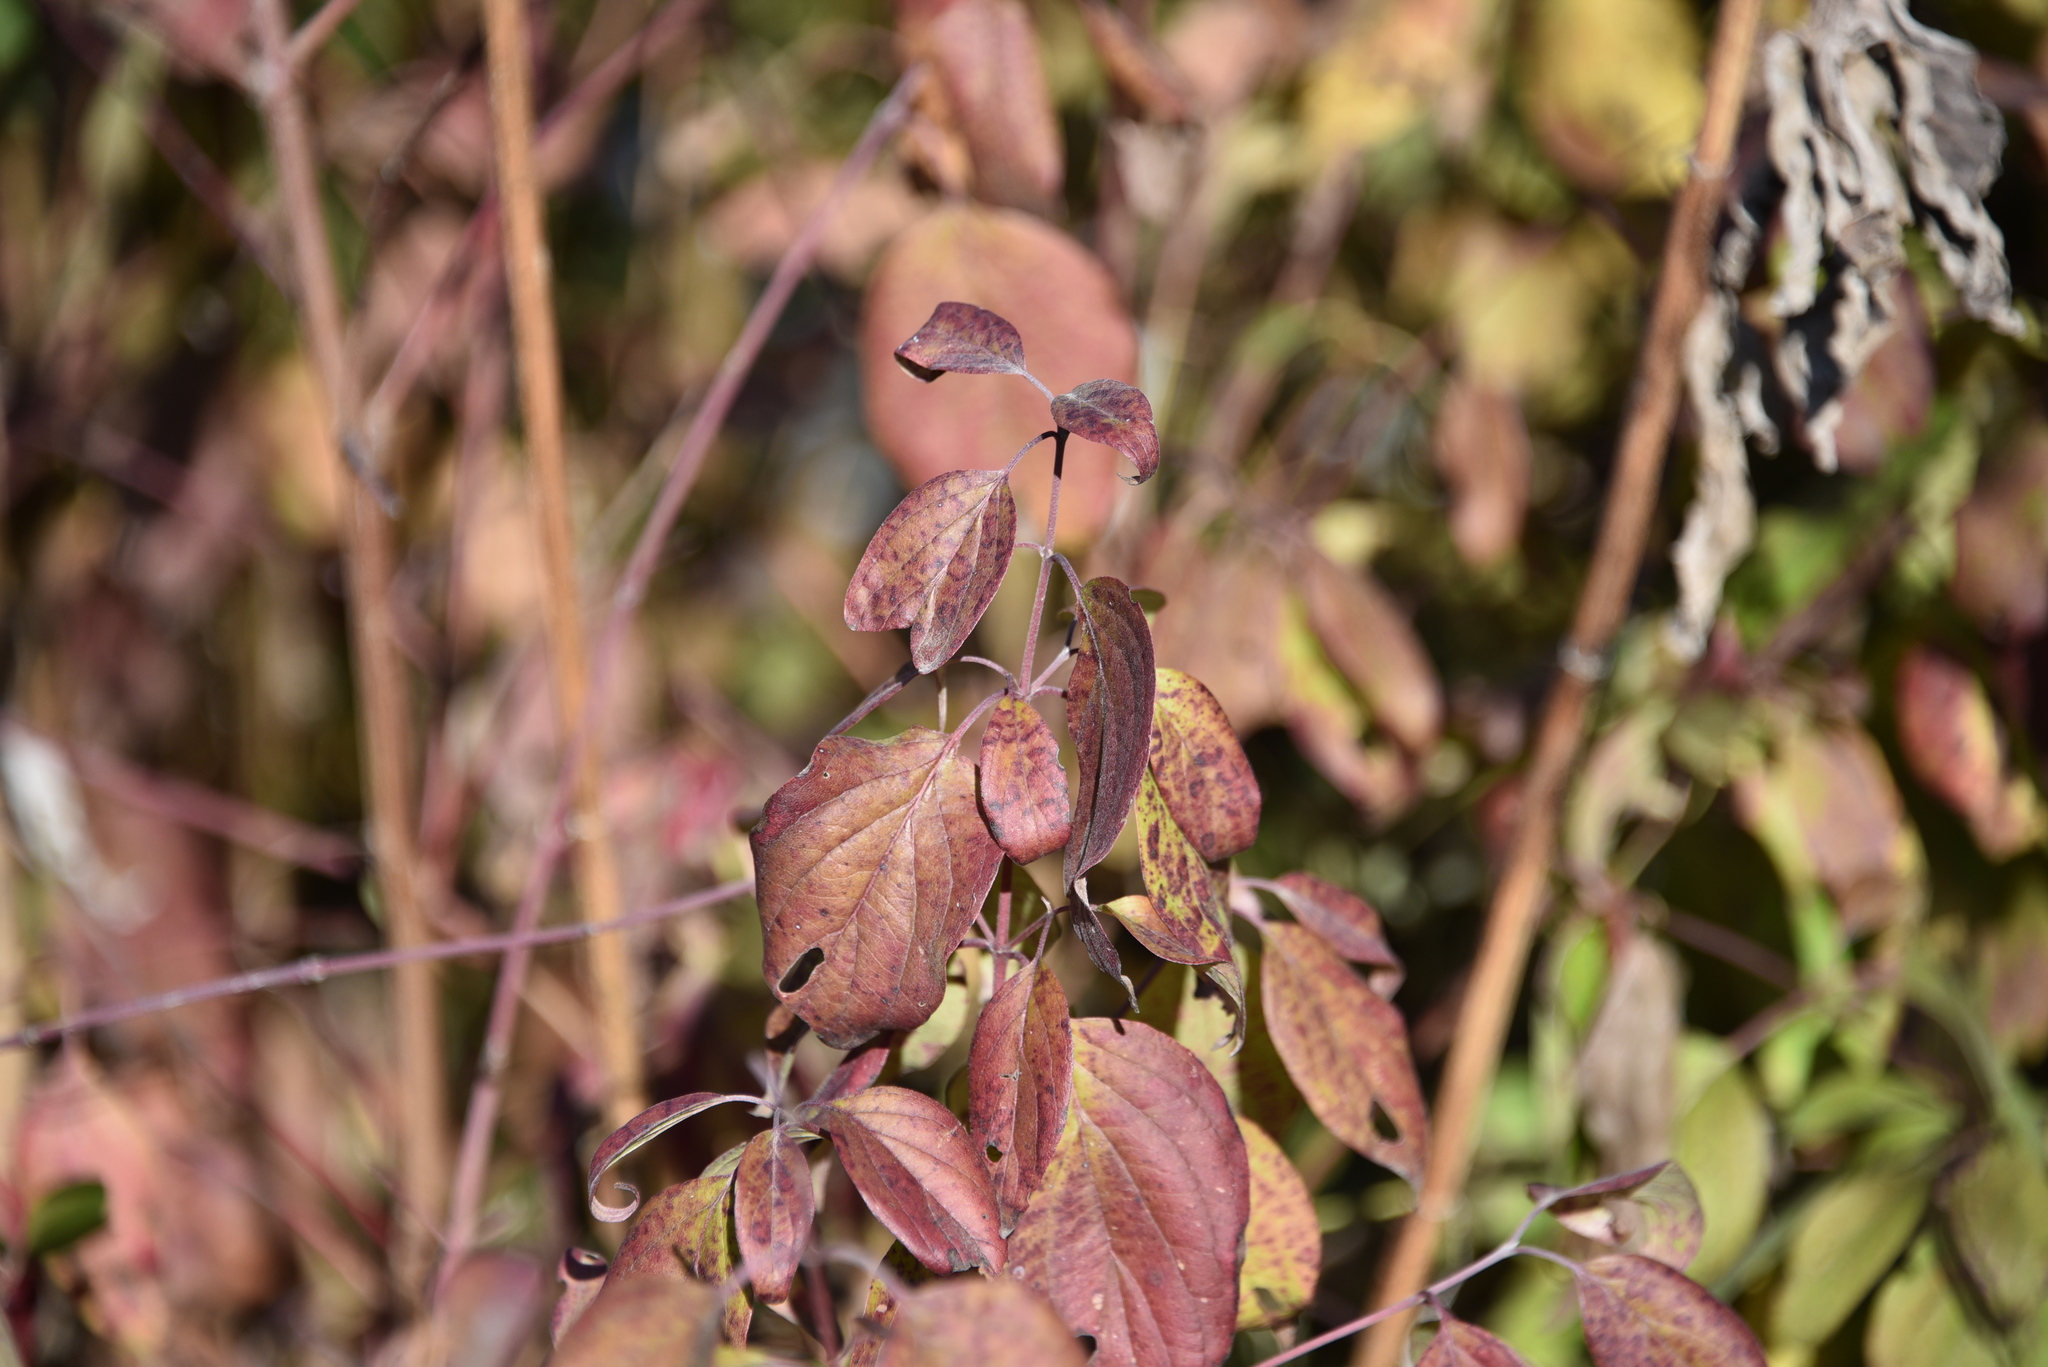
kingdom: Plantae
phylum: Tracheophyta
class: Magnoliopsida
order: Cornales
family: Cornaceae
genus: Cornus
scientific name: Cornus drummondii
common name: Rough-leaf dogwood
